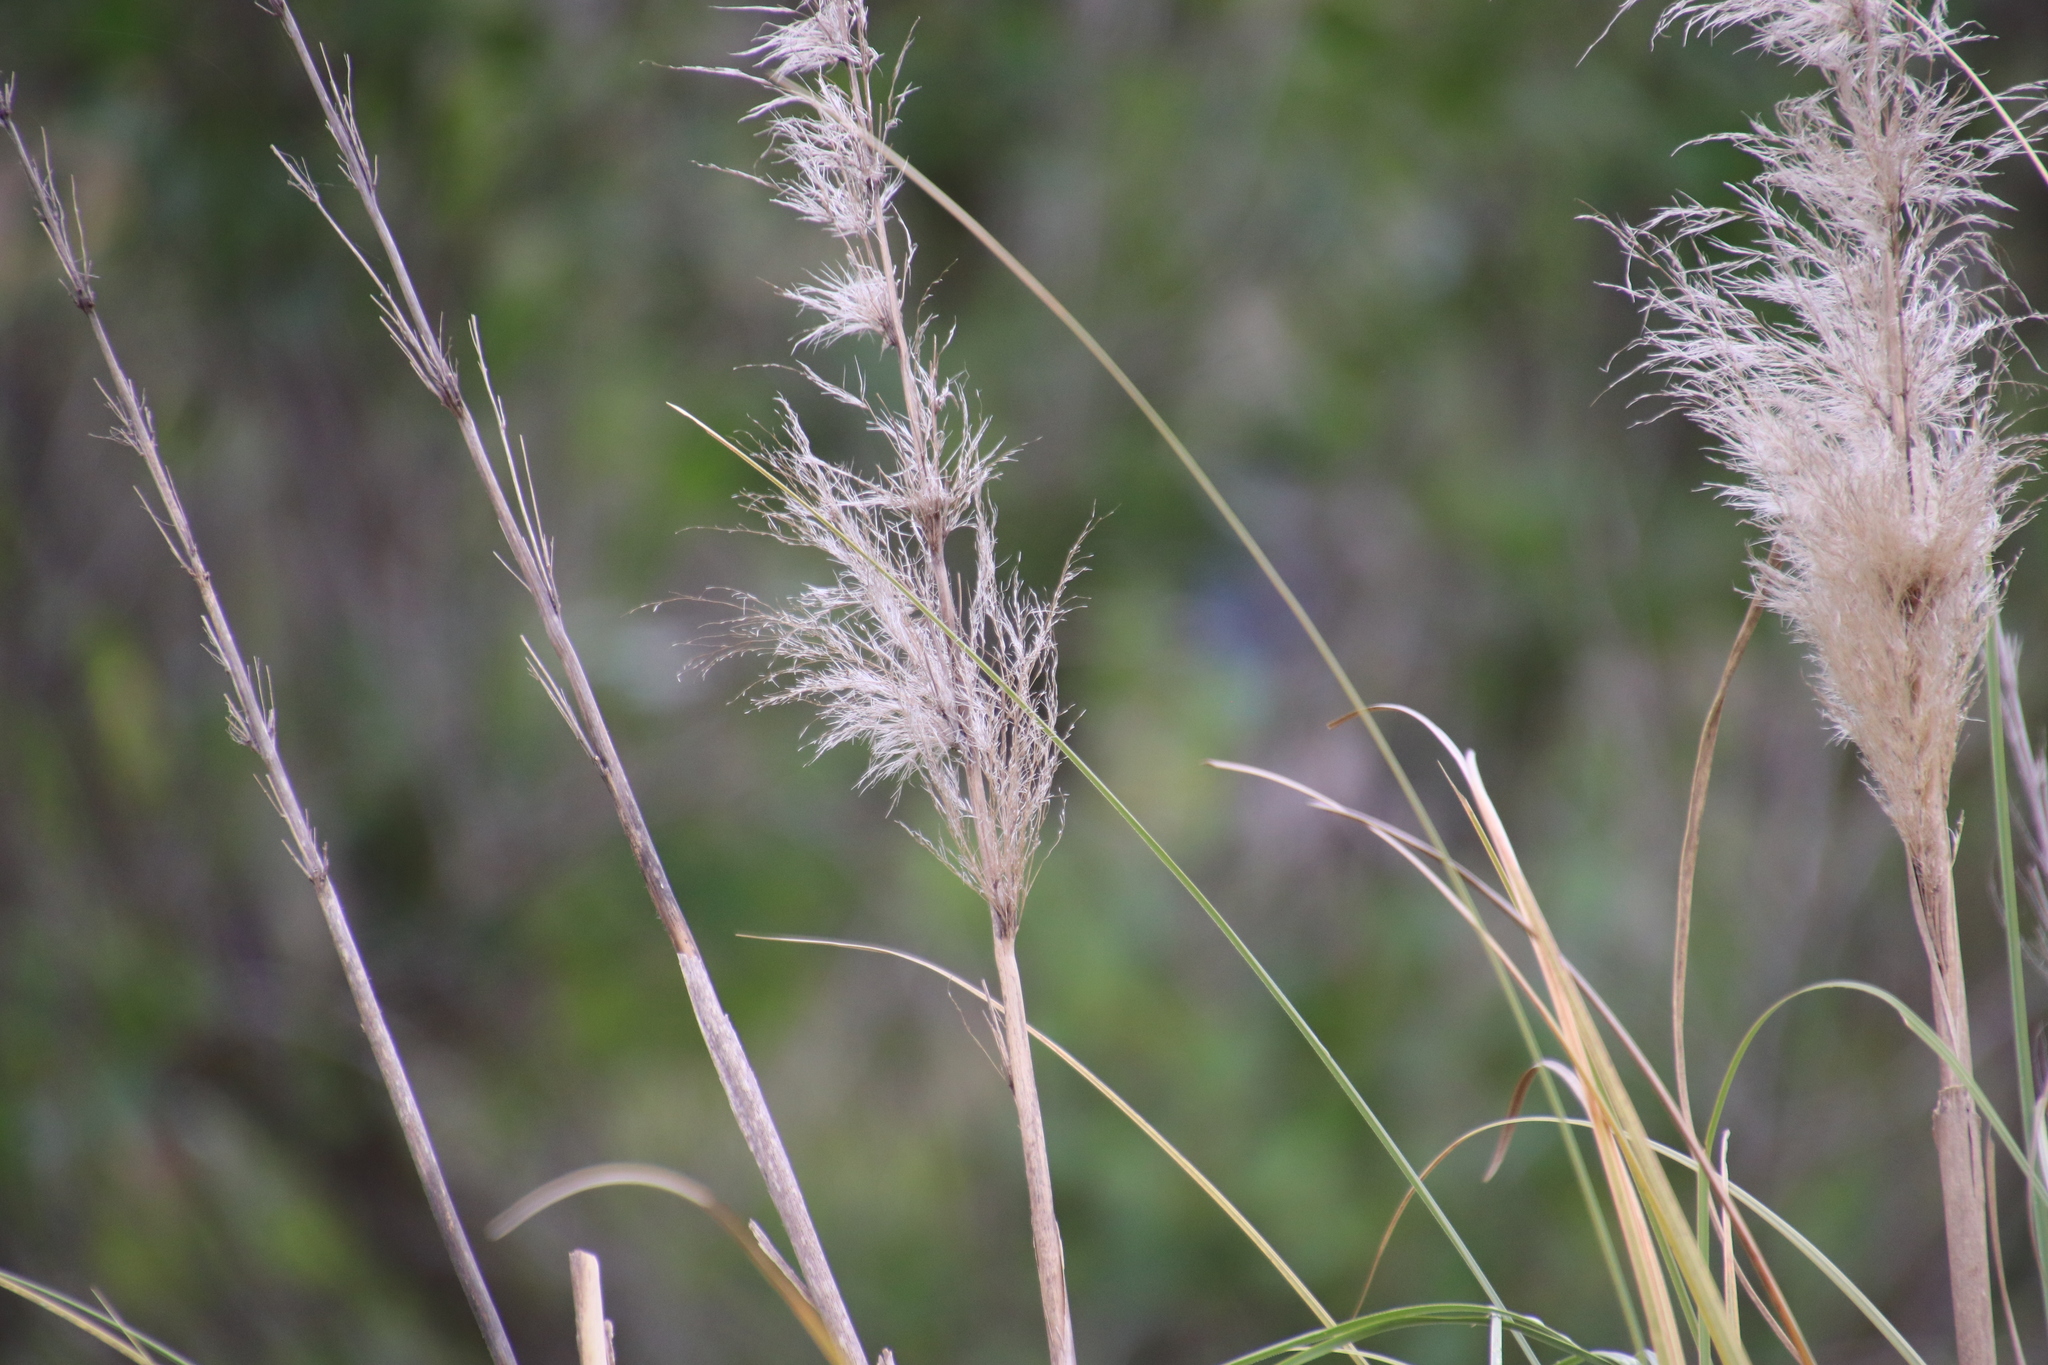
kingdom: Plantae
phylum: Tracheophyta
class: Liliopsida
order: Poales
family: Poaceae
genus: Cortaderia
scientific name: Cortaderia selloana
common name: Uruguayan pampas grass
